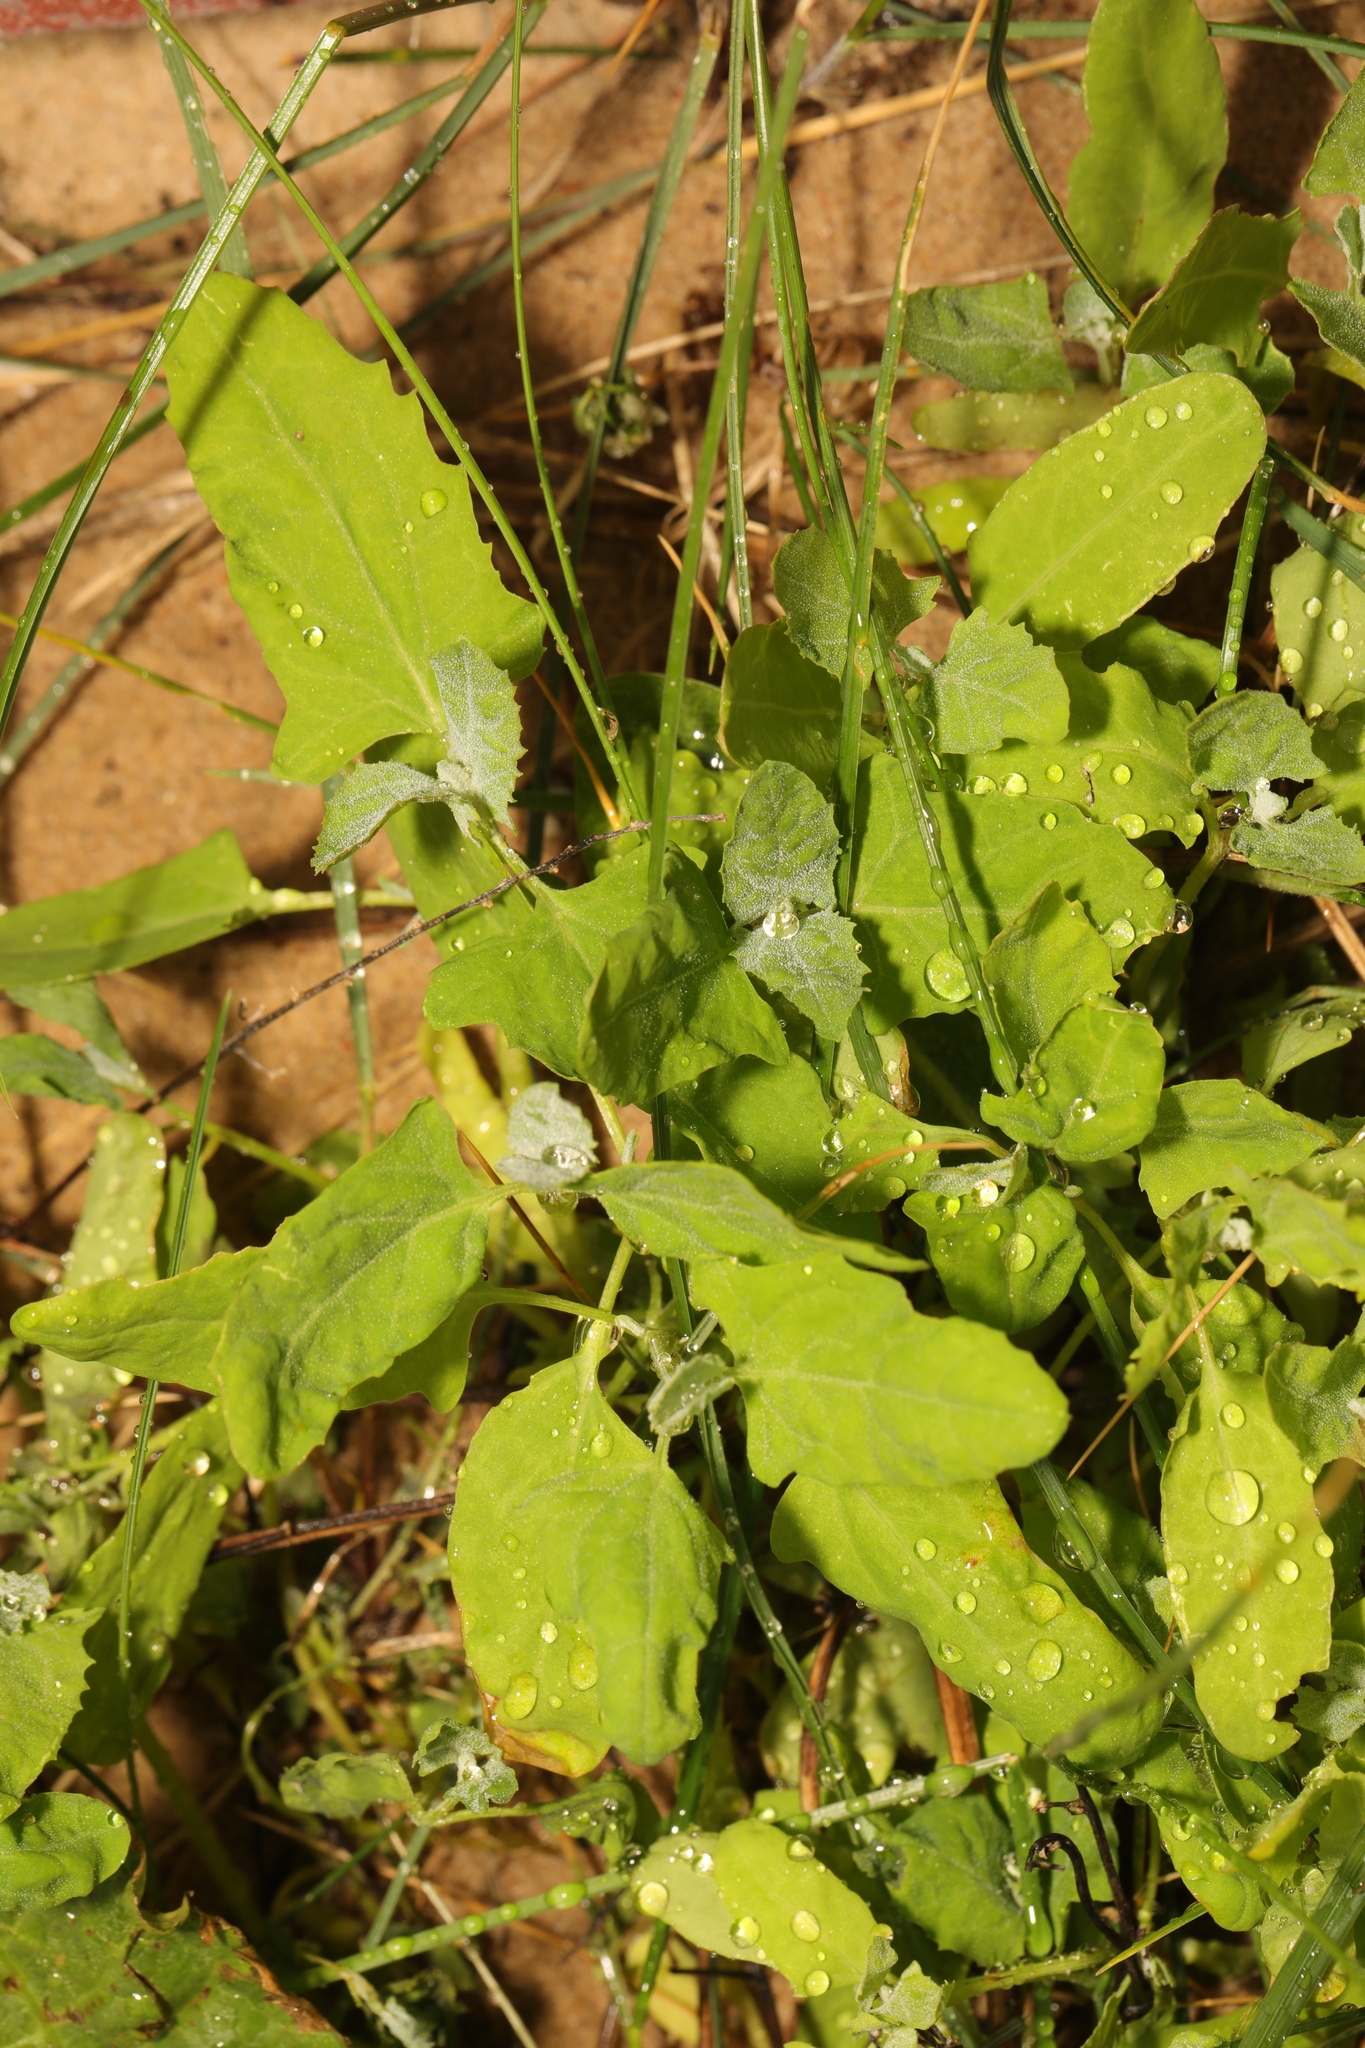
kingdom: Plantae
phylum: Tracheophyta
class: Magnoliopsida
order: Caryophyllales
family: Amaranthaceae
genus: Chenopodium
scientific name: Chenopodium album
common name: Fat-hen
